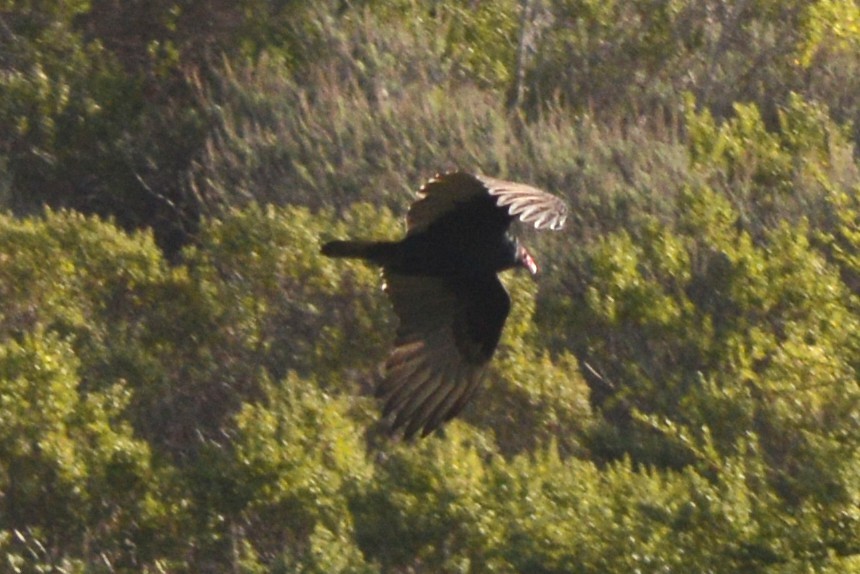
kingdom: Animalia
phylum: Chordata
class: Aves
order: Accipitriformes
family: Cathartidae
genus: Cathartes
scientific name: Cathartes aura
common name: Turkey vulture
